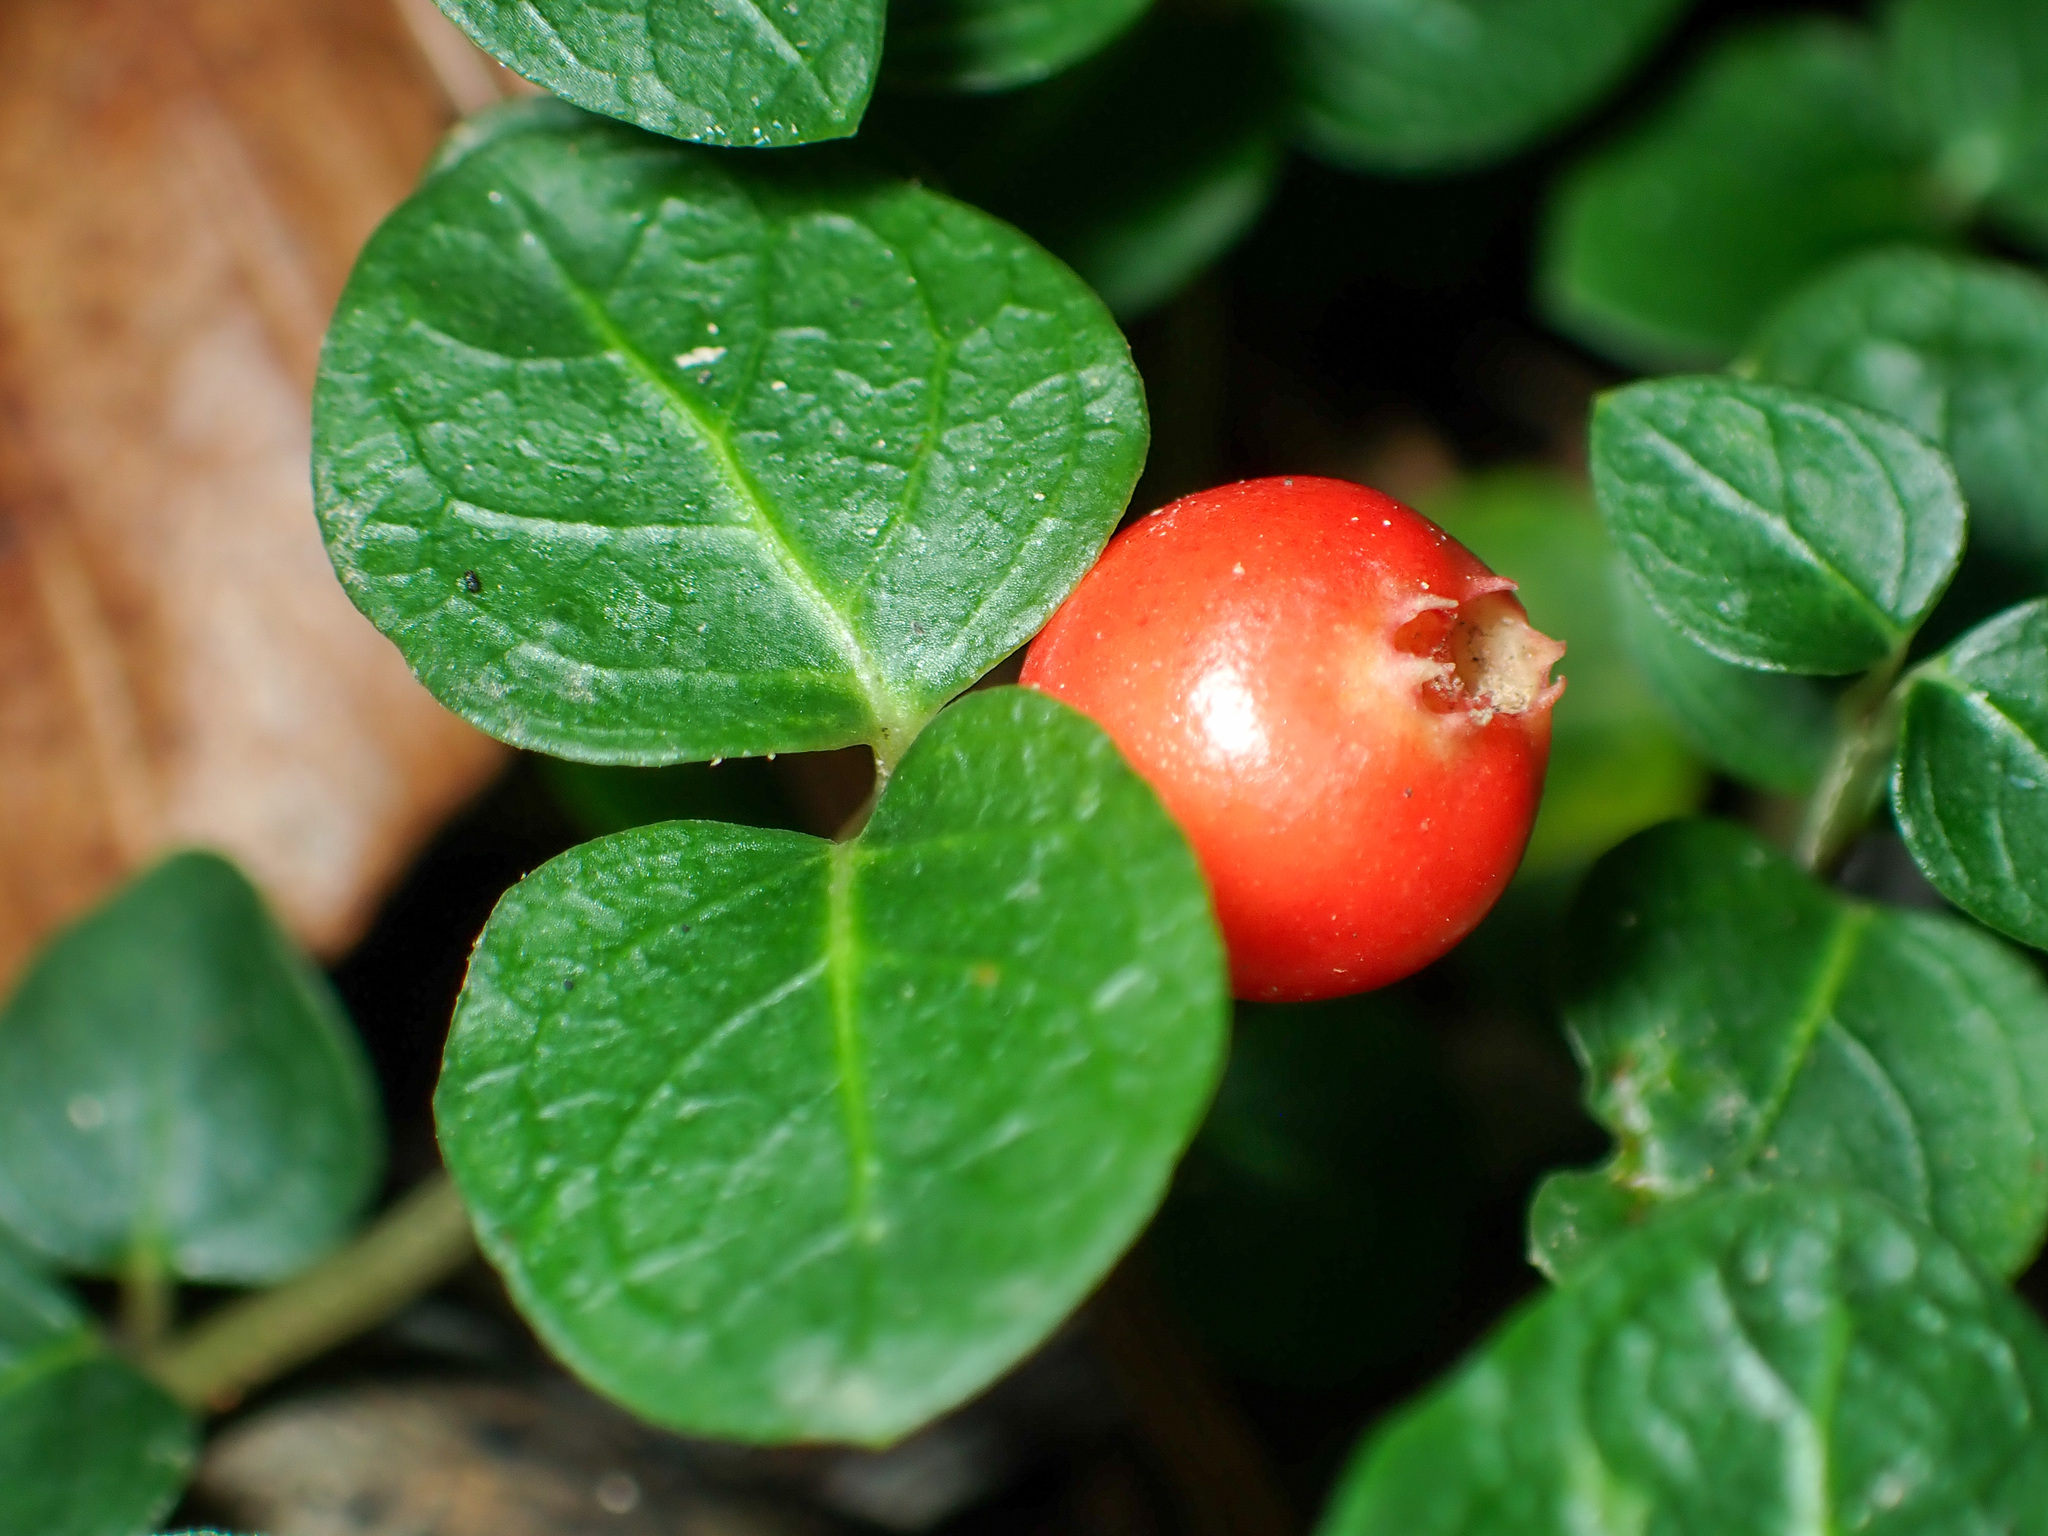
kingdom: Plantae
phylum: Tracheophyta
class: Magnoliopsida
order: Gentianales
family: Rubiaceae
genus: Mitchella
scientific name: Mitchella repens
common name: Partridge-berry
